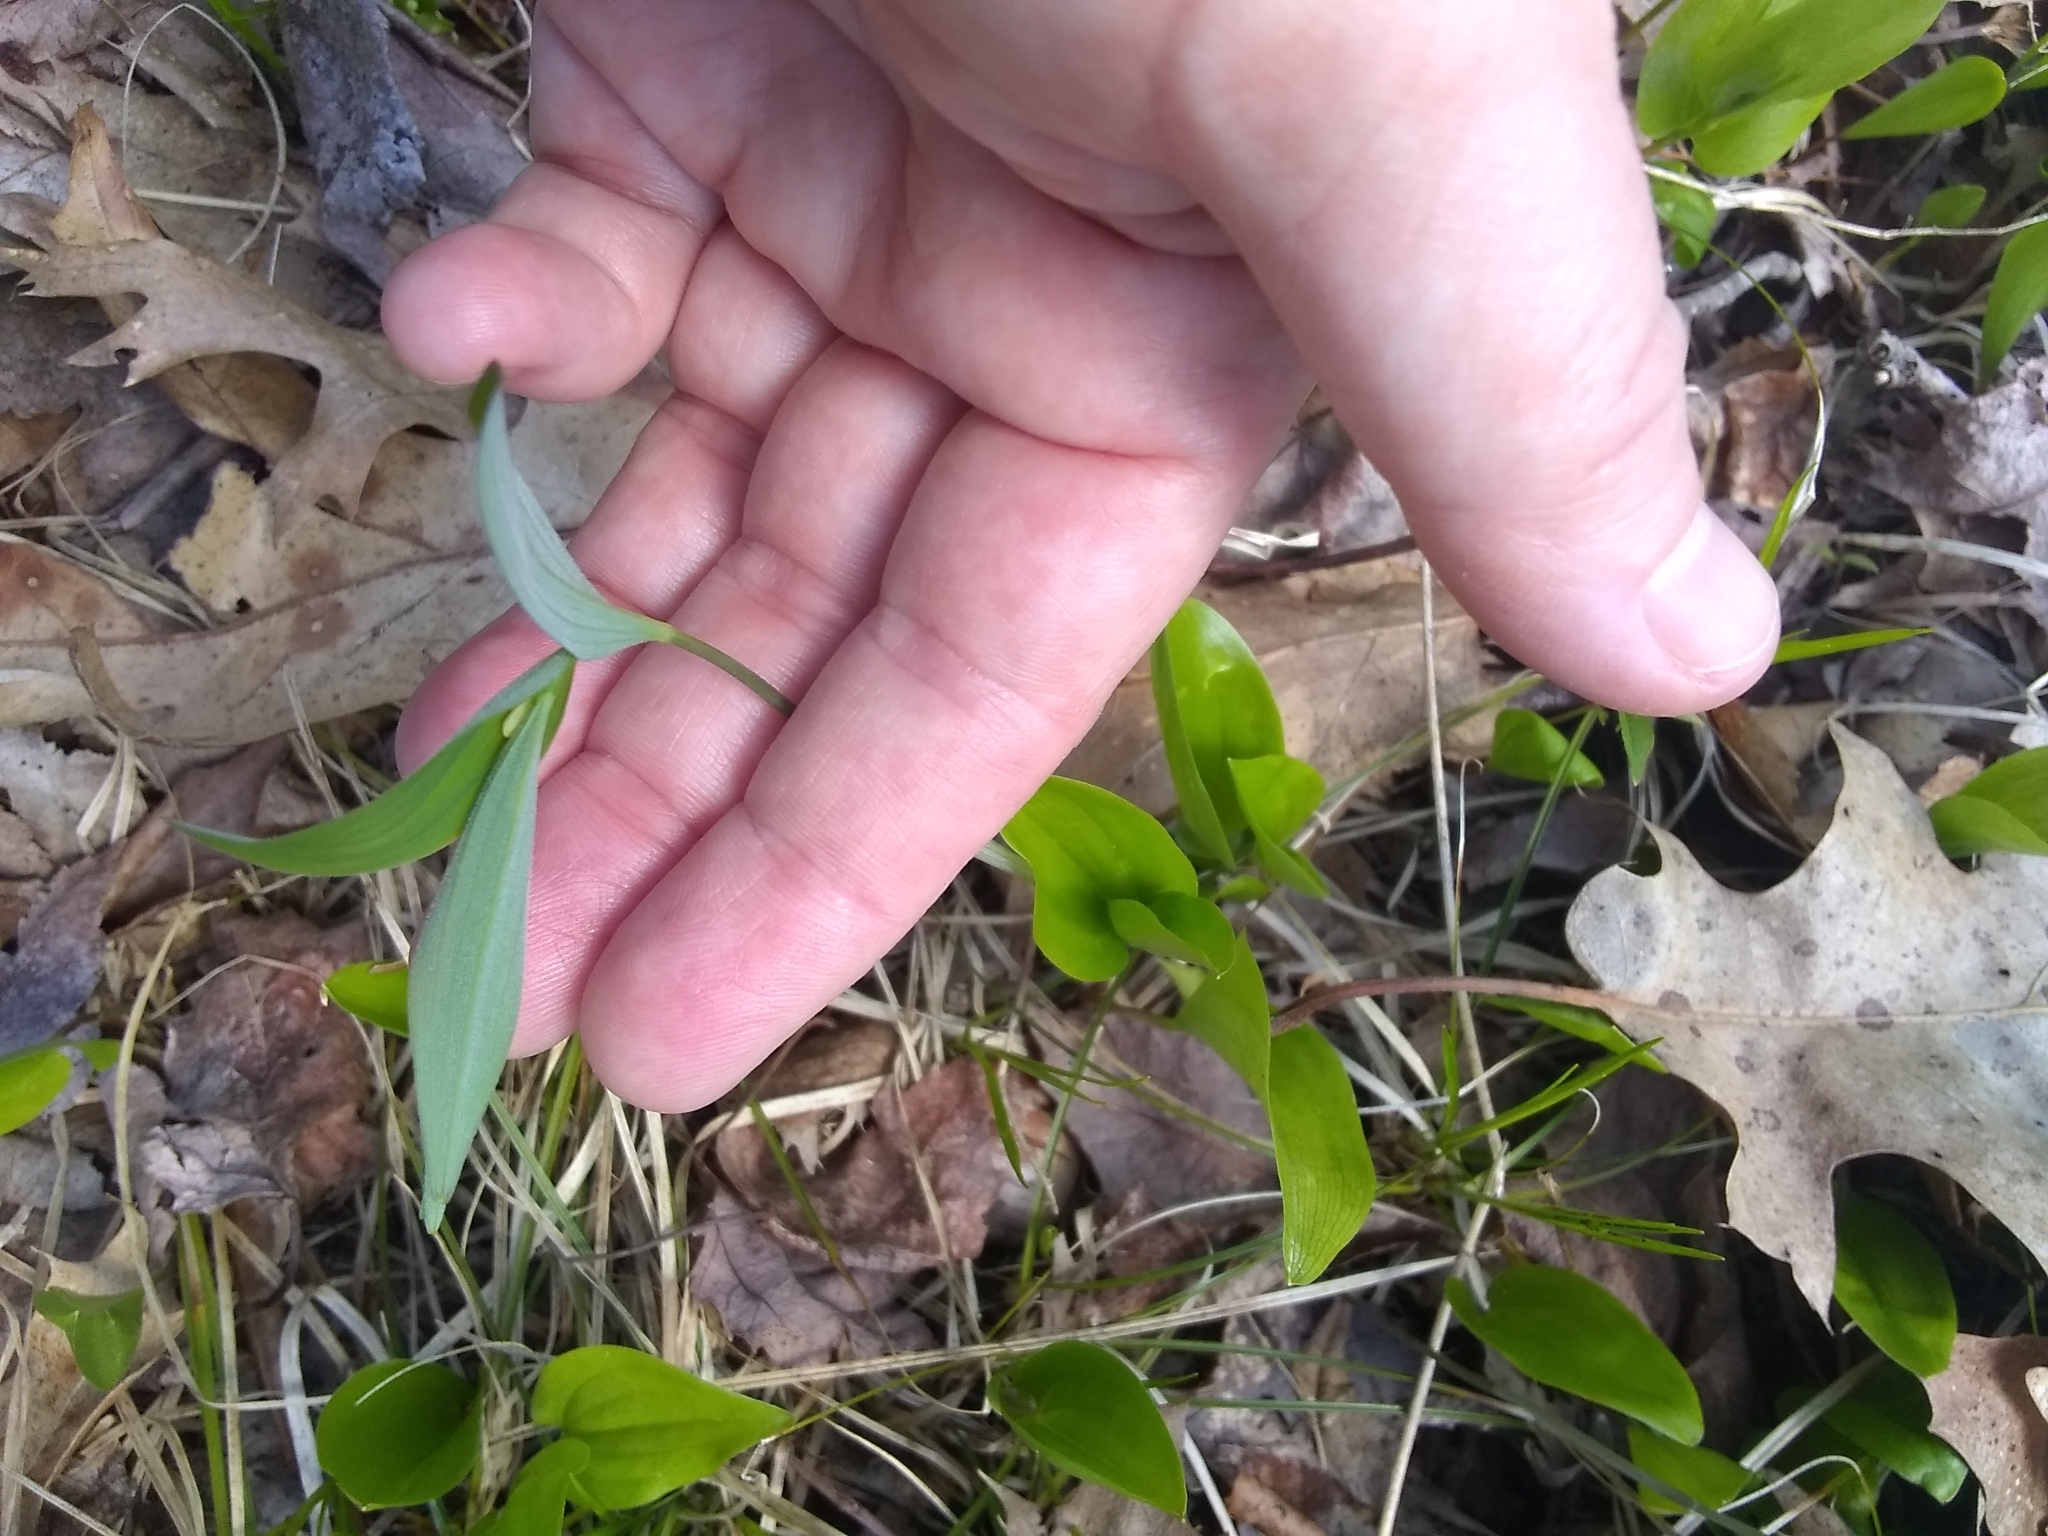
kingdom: Plantae
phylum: Tracheophyta
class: Liliopsida
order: Asparagales
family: Asparagaceae
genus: Polygonatum
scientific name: Polygonatum pubescens
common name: Downy solomon's seal
